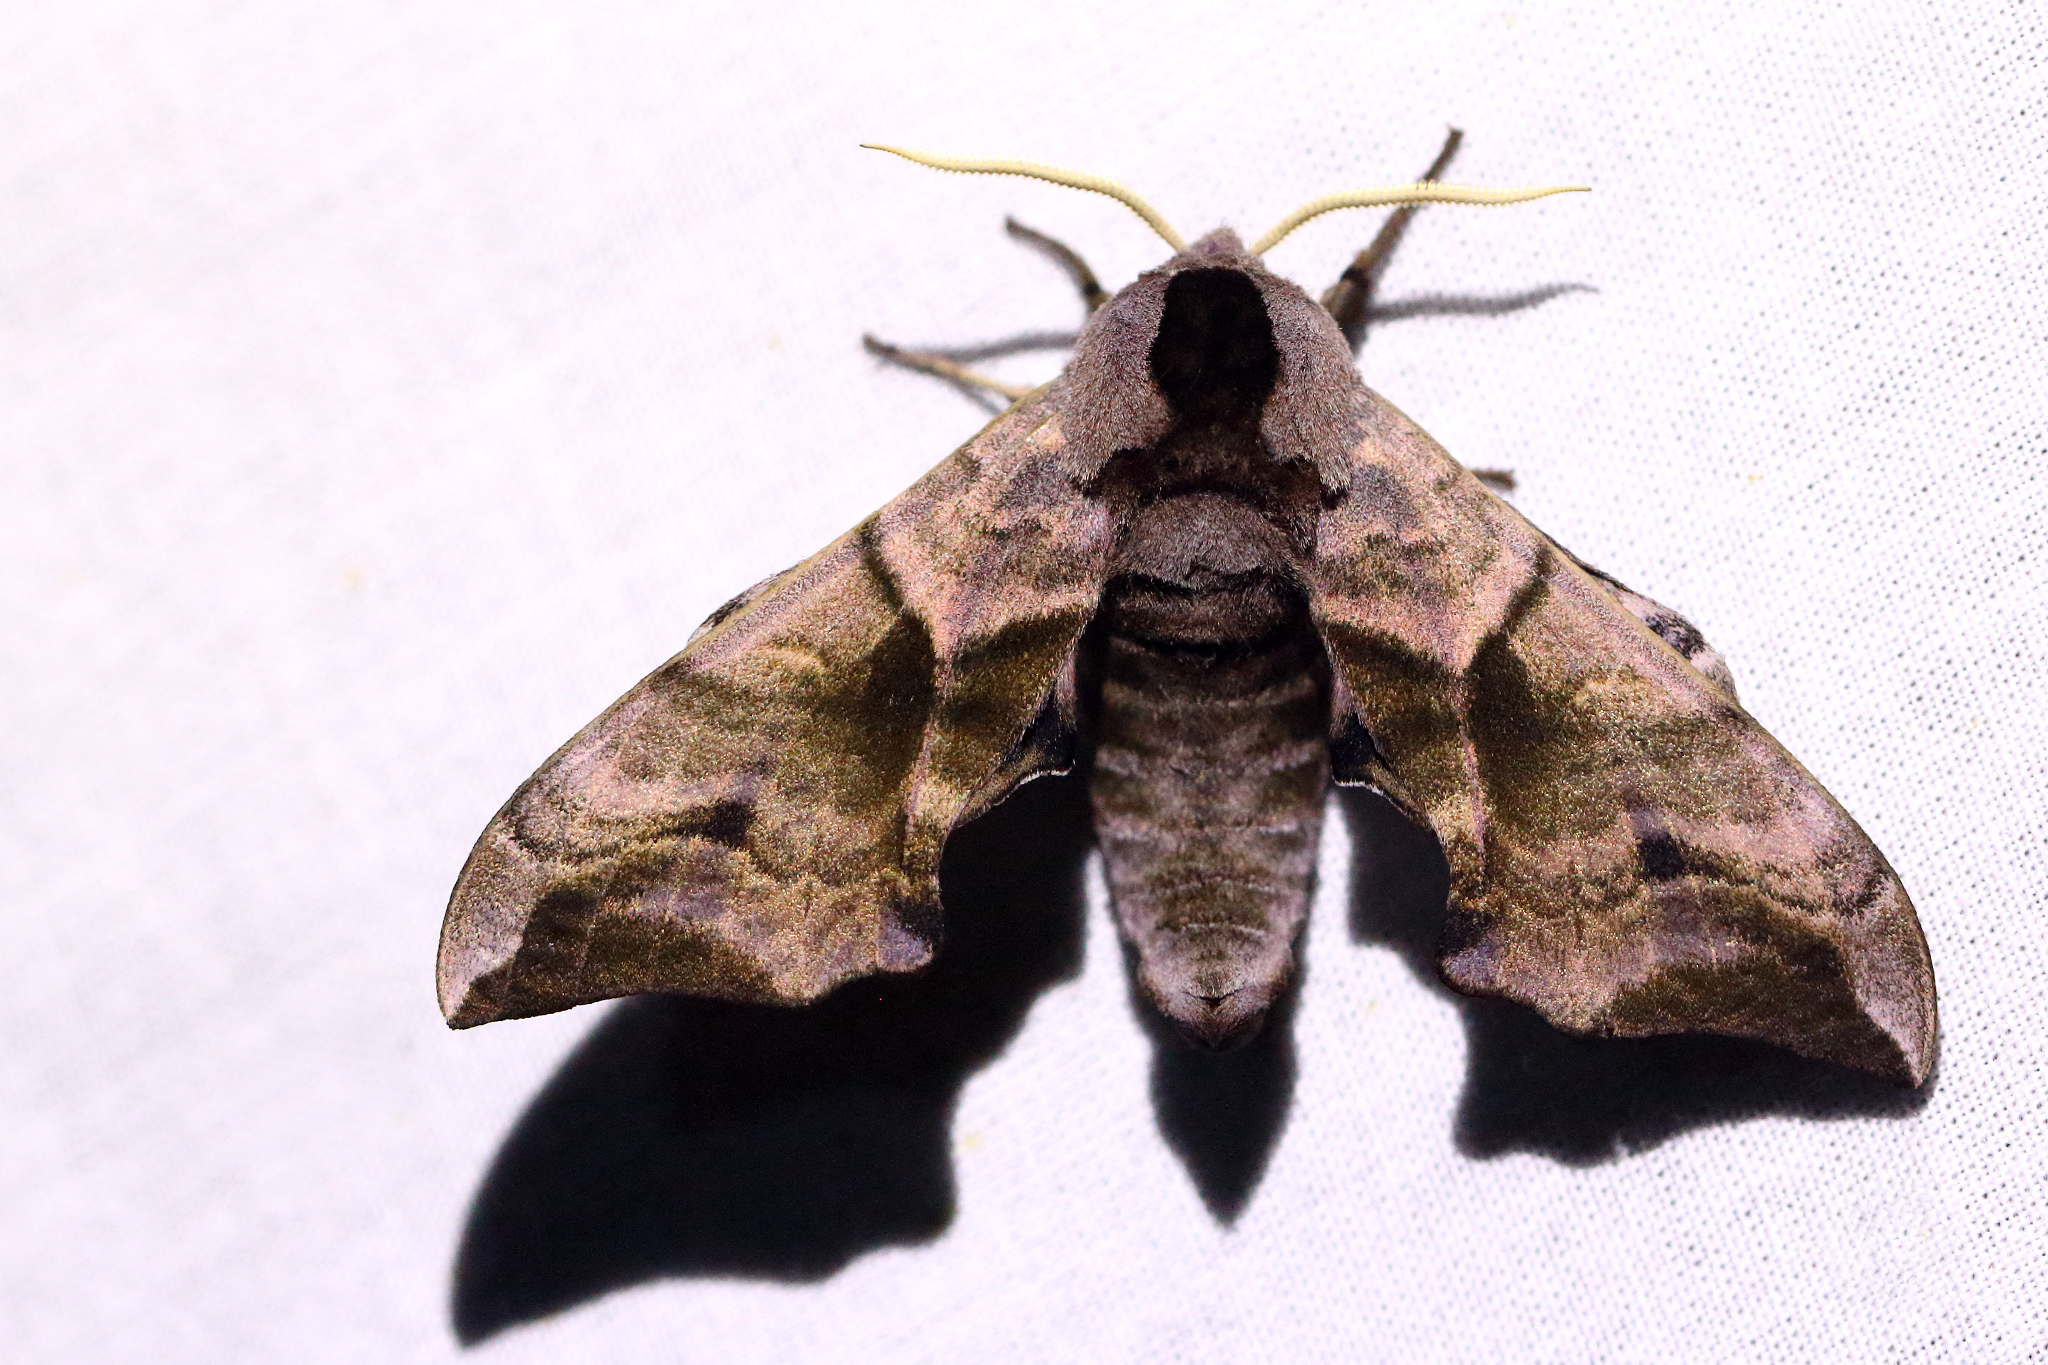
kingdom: Animalia
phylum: Arthropoda
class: Insecta
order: Lepidoptera
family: Sphingidae
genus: Smerinthus
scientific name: Smerinthus ocellata
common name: Eyed hawk-moth
